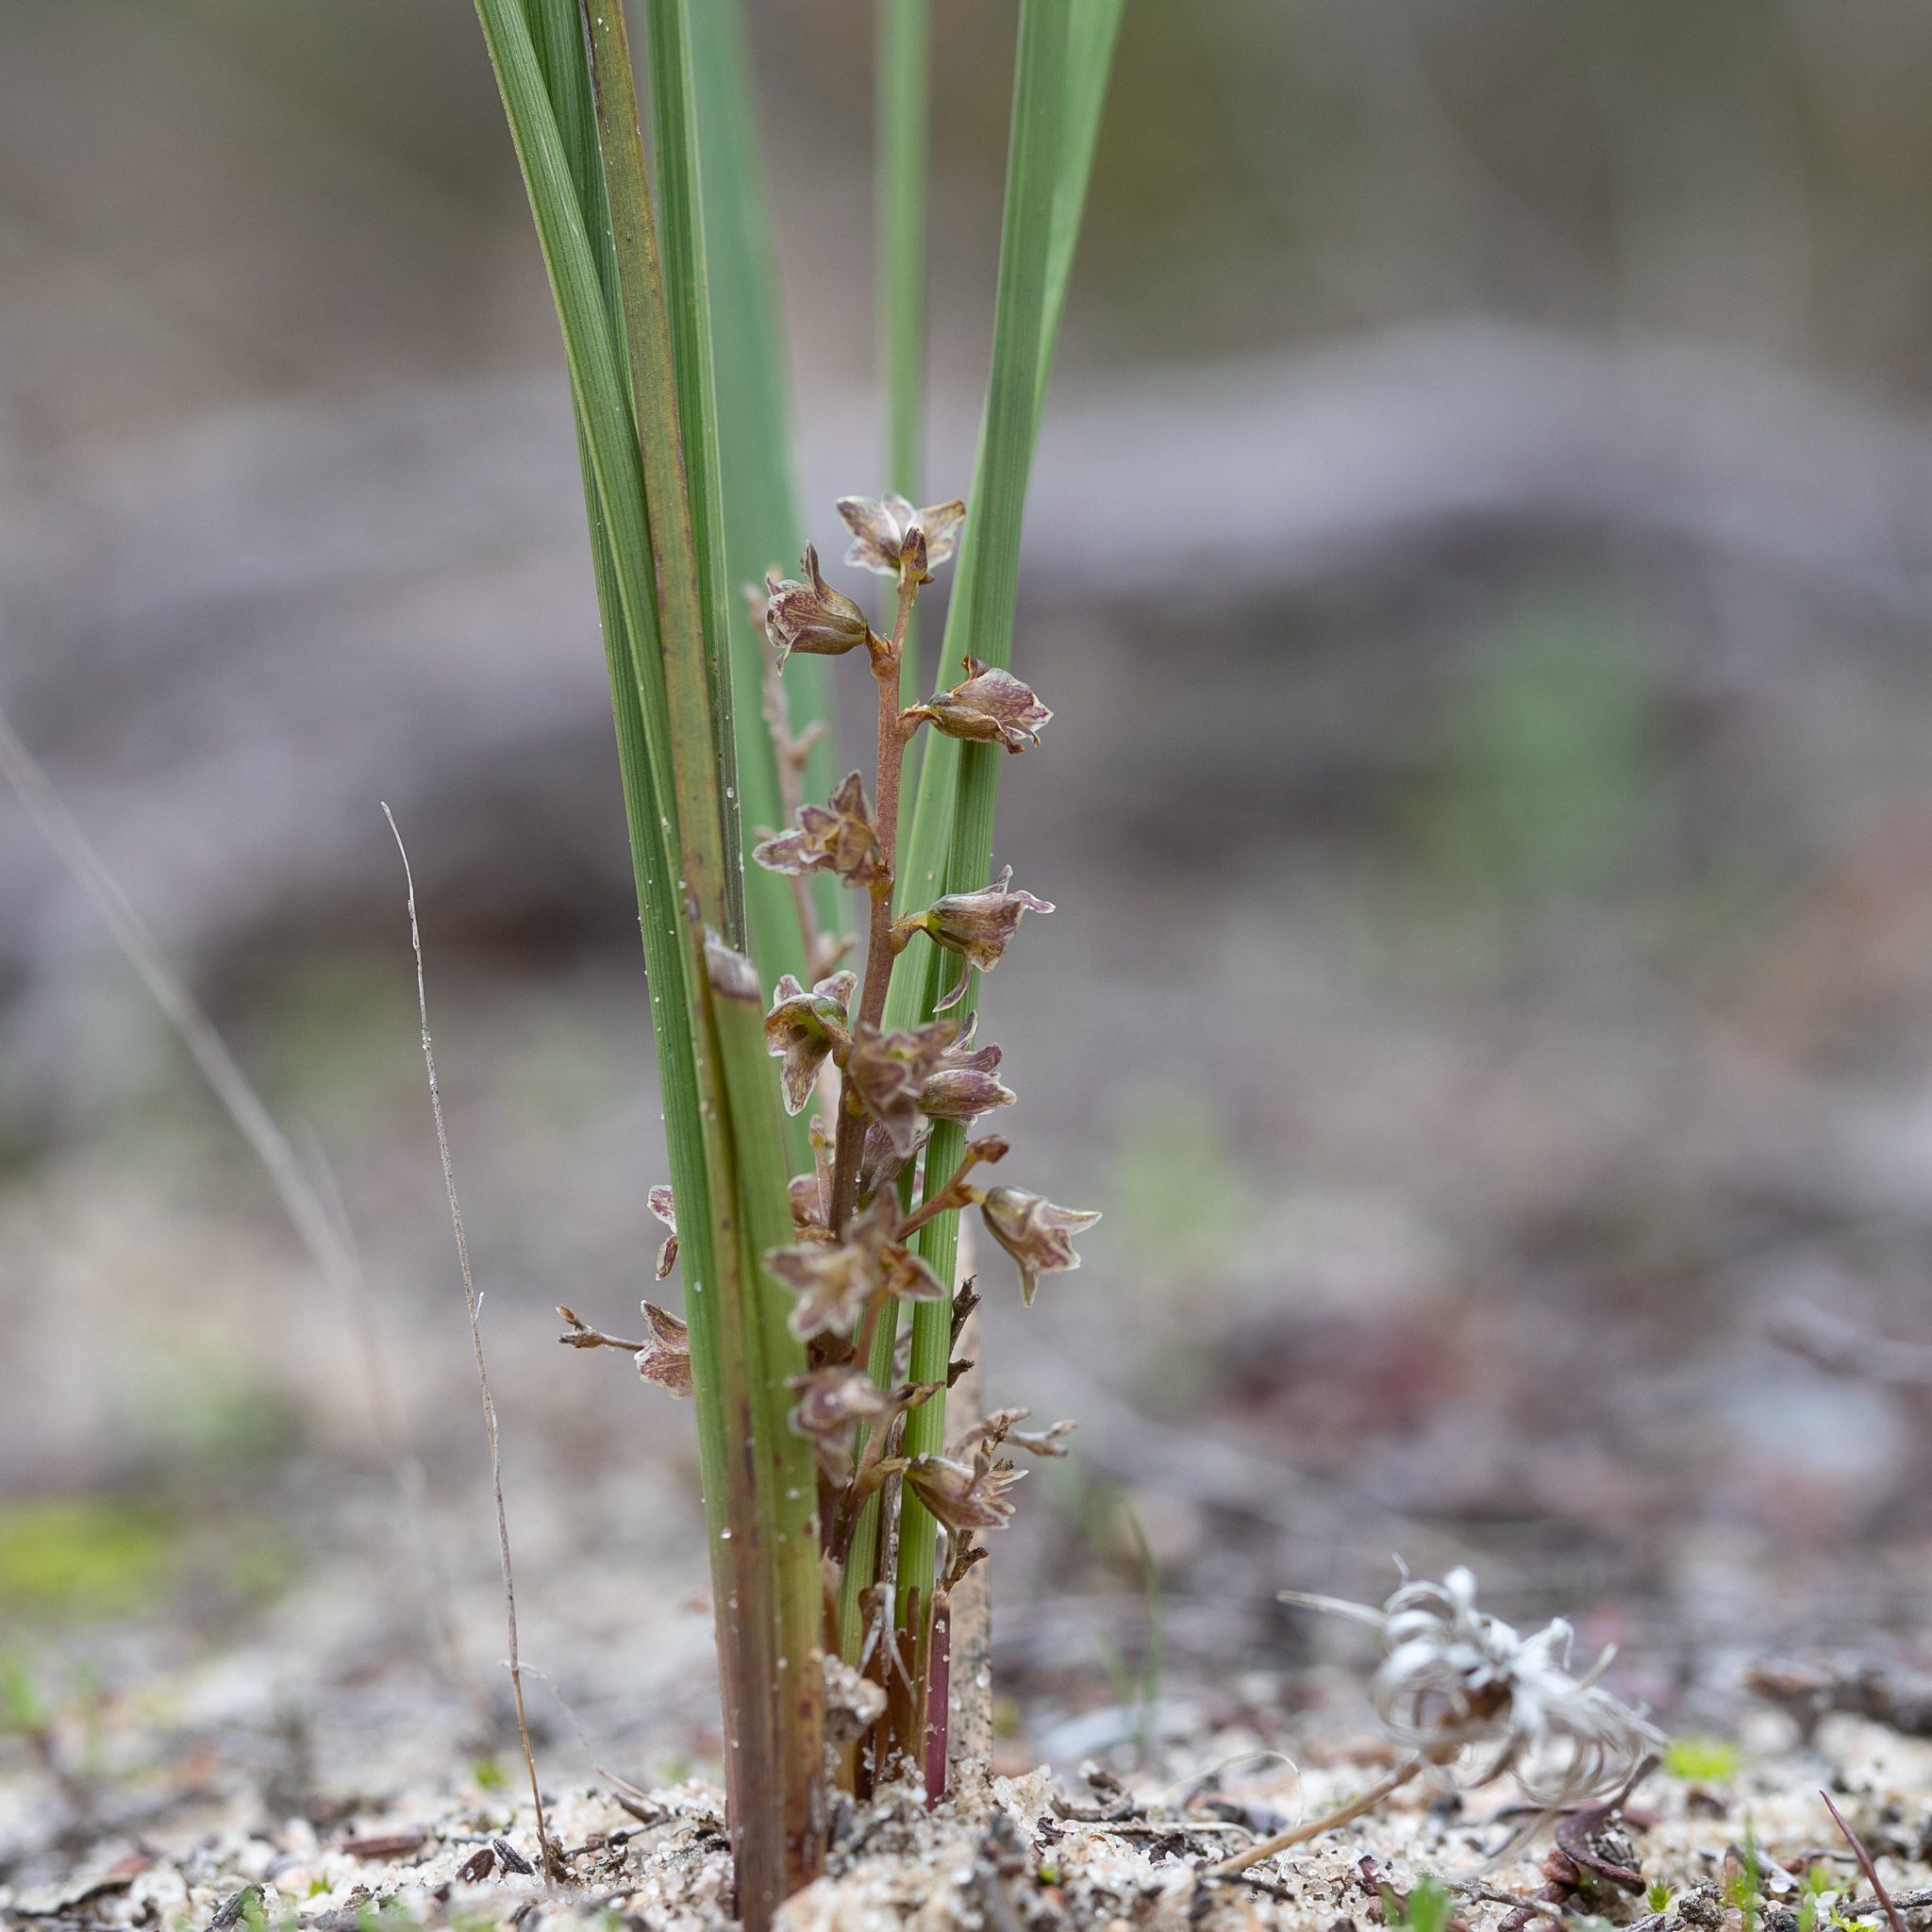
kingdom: Plantae
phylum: Tracheophyta
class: Liliopsida
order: Asparagales
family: Asparagaceae
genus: Lomandra
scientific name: Lomandra micrantha
